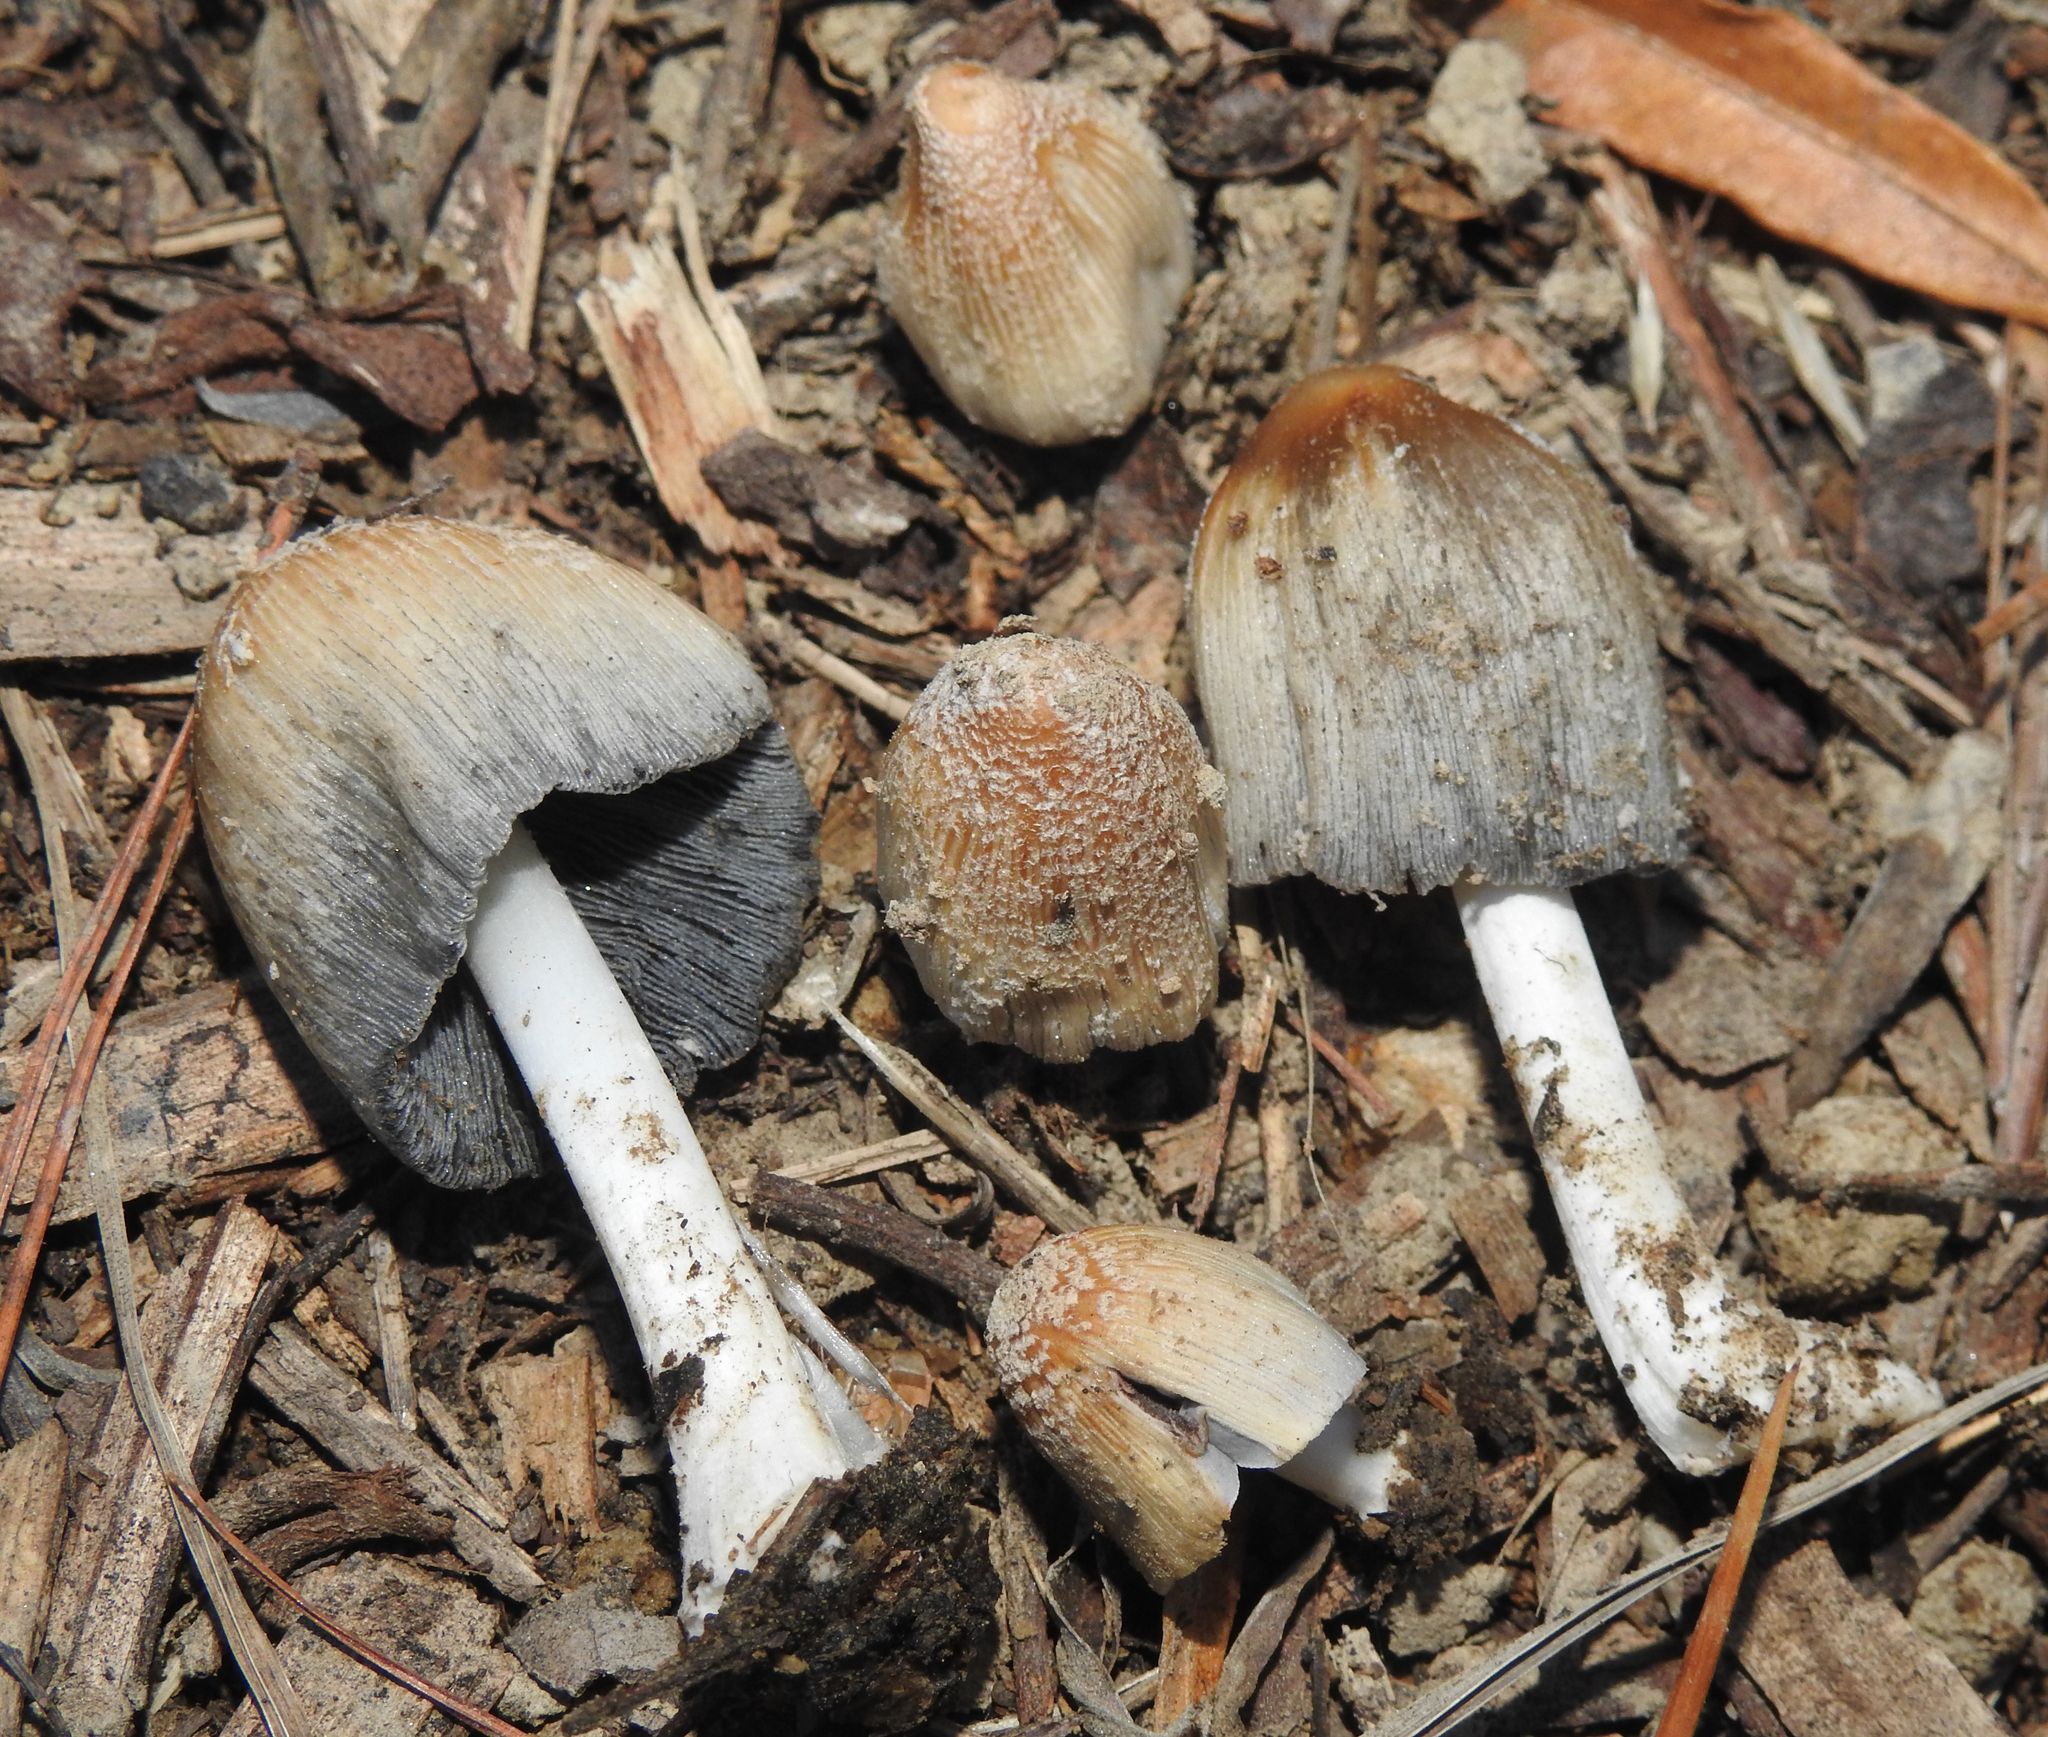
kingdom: Fungi
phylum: Basidiomycota
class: Agaricomycetes
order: Agaricales
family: Psathyrellaceae
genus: Coprinellus
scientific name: Coprinellus flocculosus
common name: Flocculose inkcap
